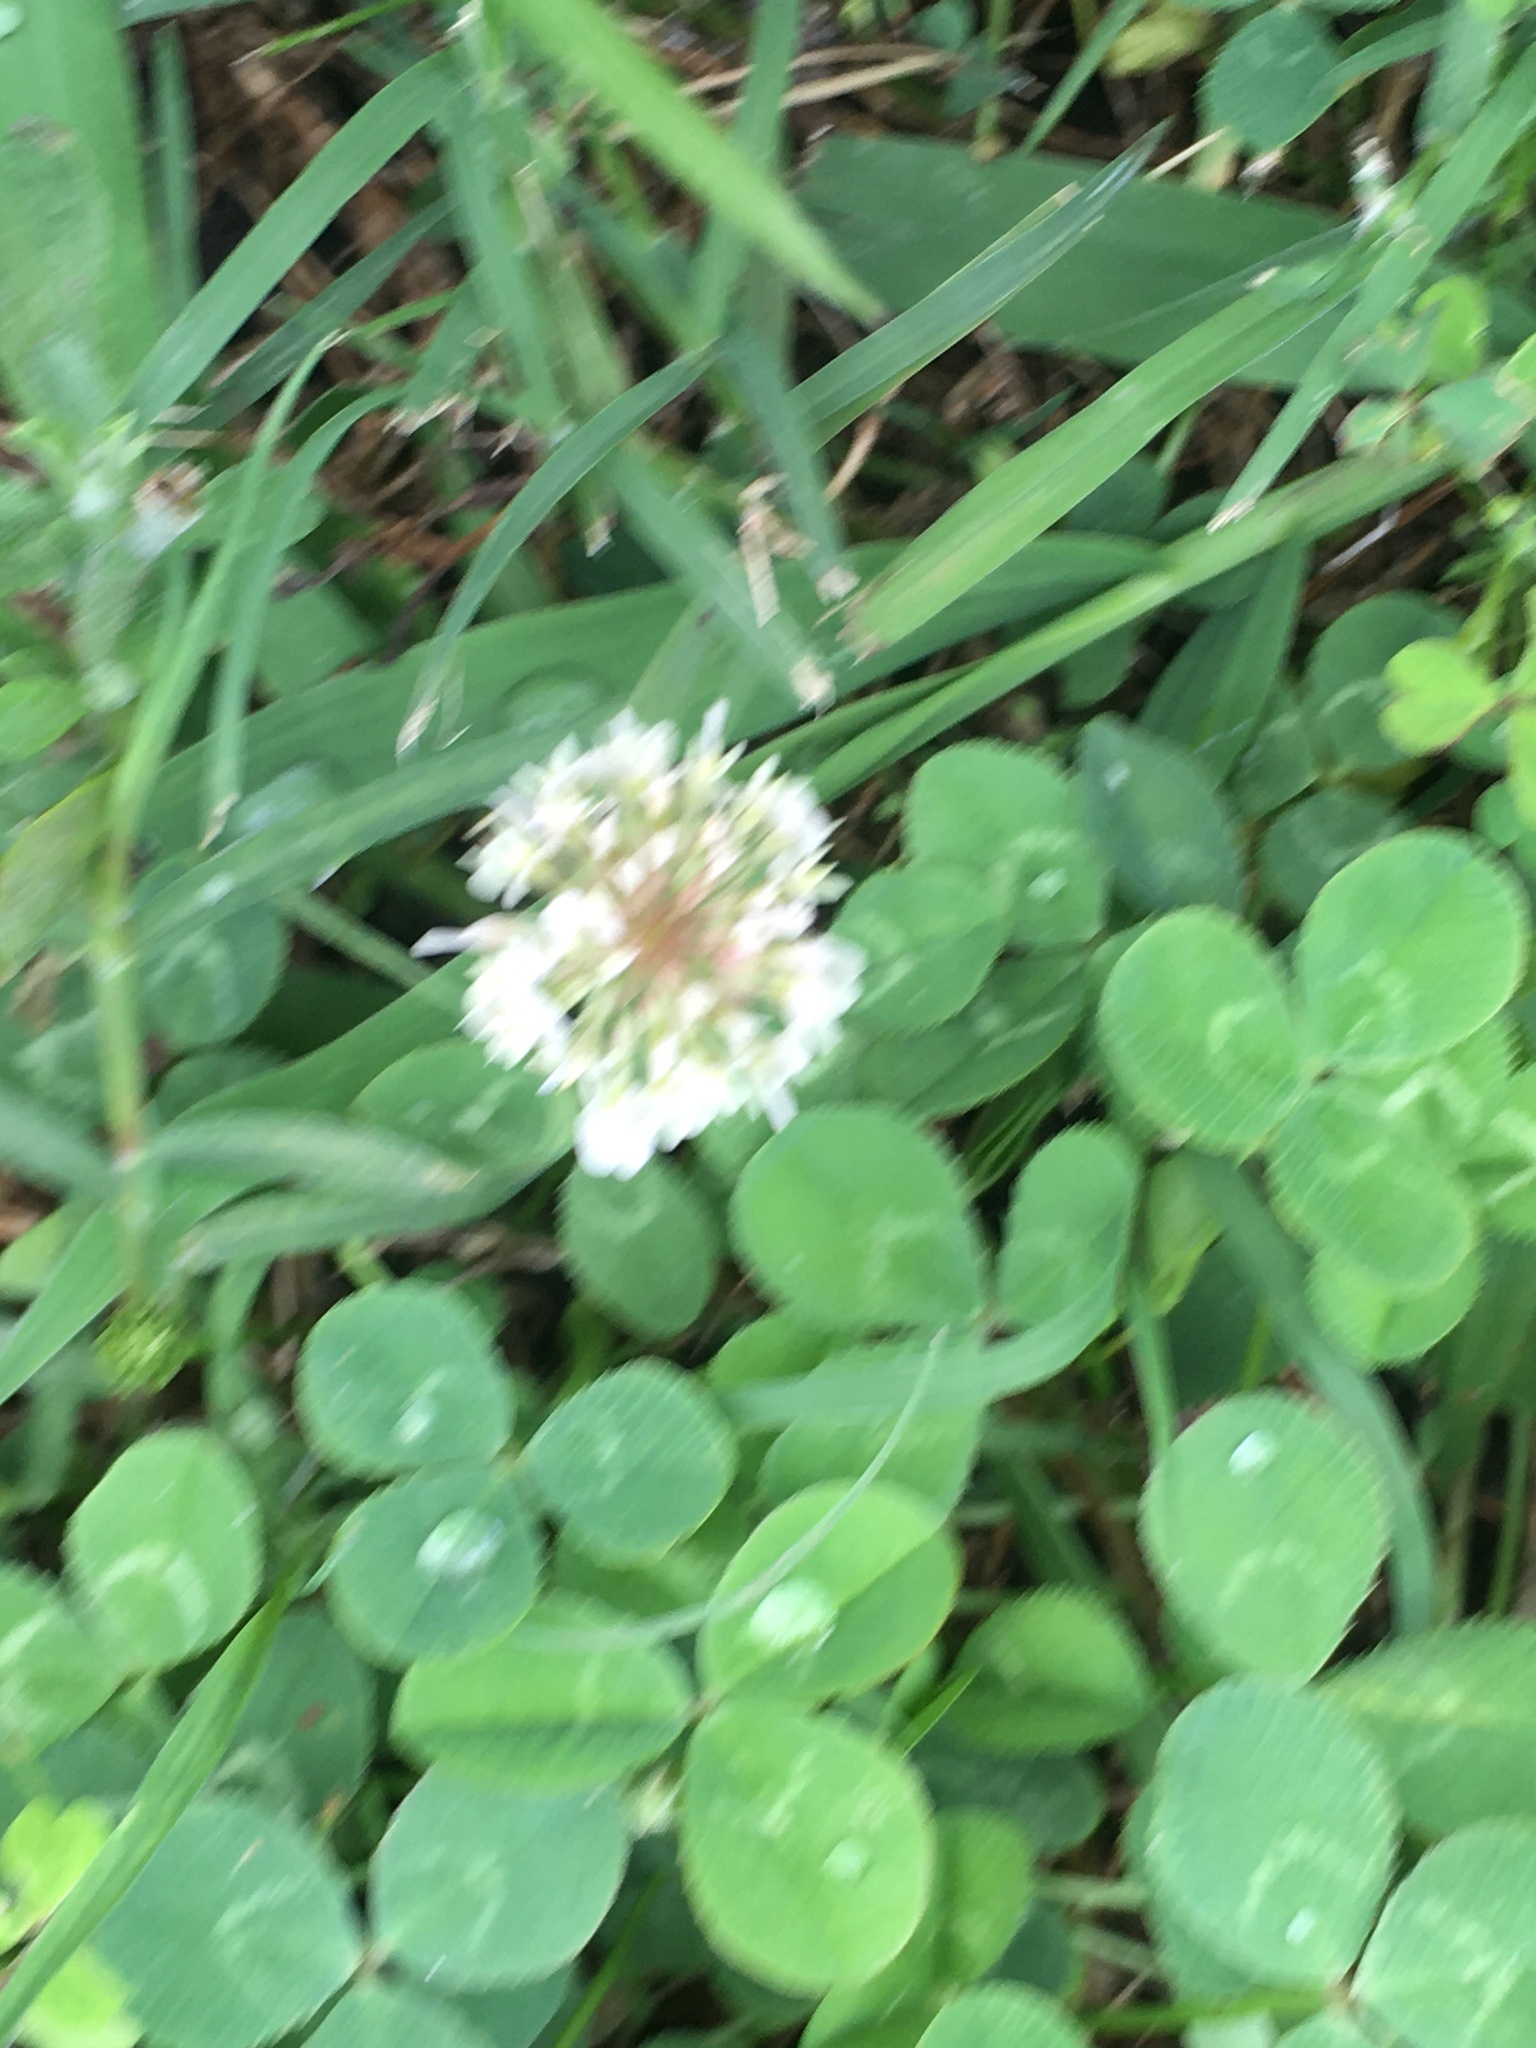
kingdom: Plantae
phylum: Tracheophyta
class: Magnoliopsida
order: Fabales
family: Fabaceae
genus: Trifolium
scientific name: Trifolium repens
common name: White clover
